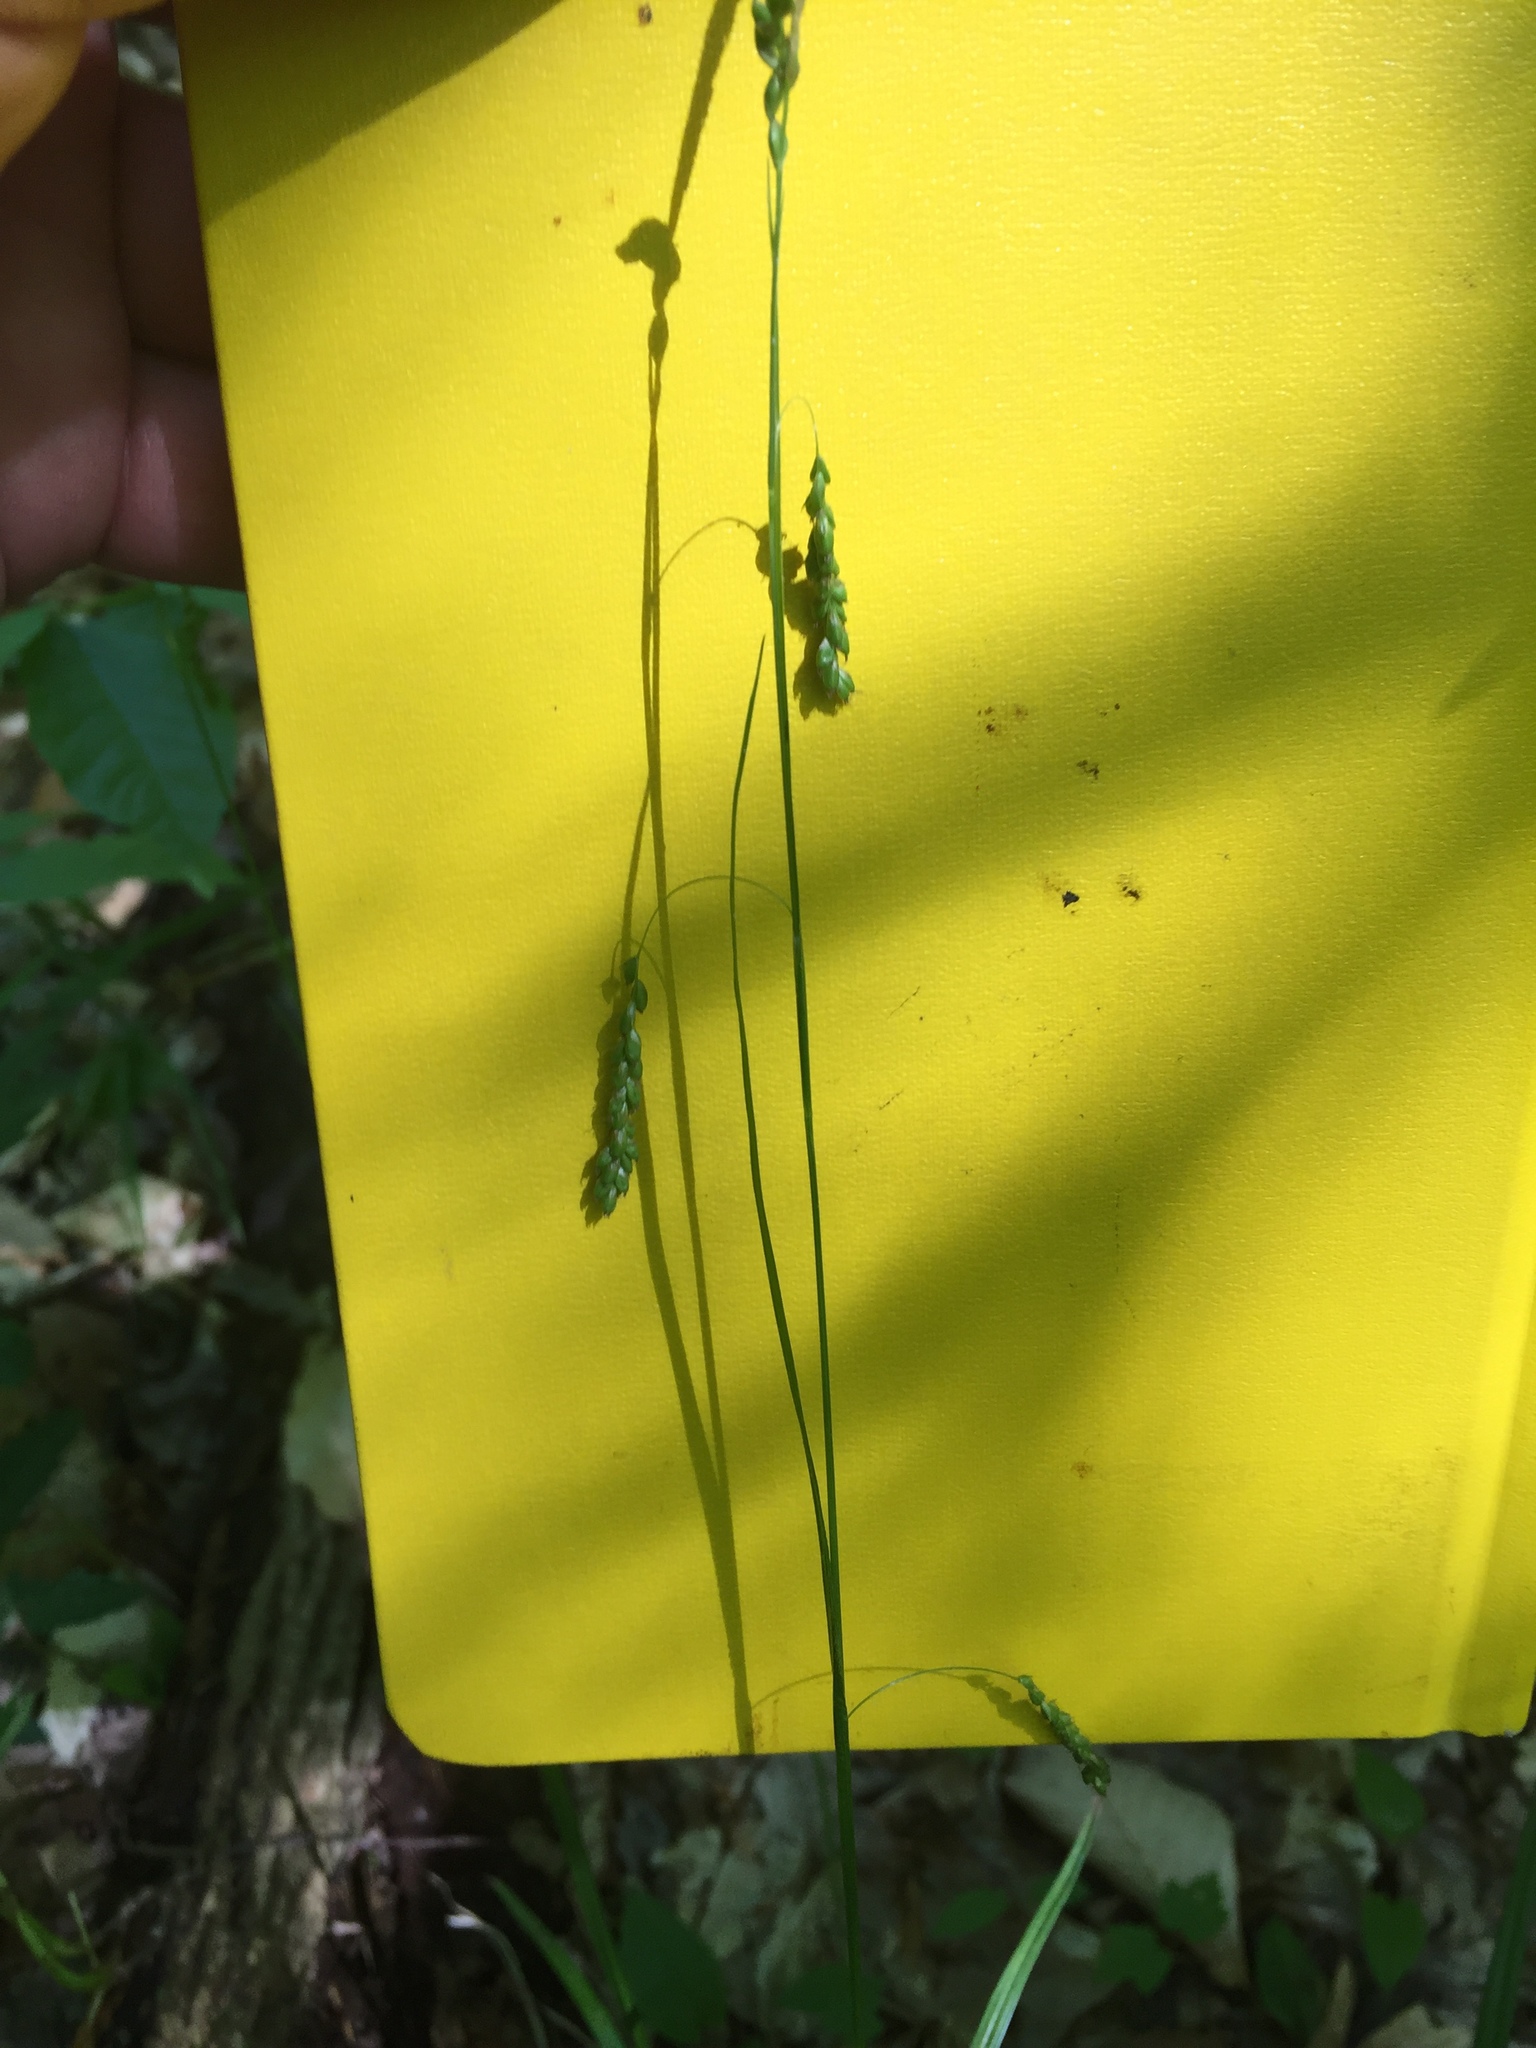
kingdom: Plantae
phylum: Tracheophyta
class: Liliopsida
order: Poales
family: Cyperaceae
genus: Carex
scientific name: Carex gracillima
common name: Graceful sedge
